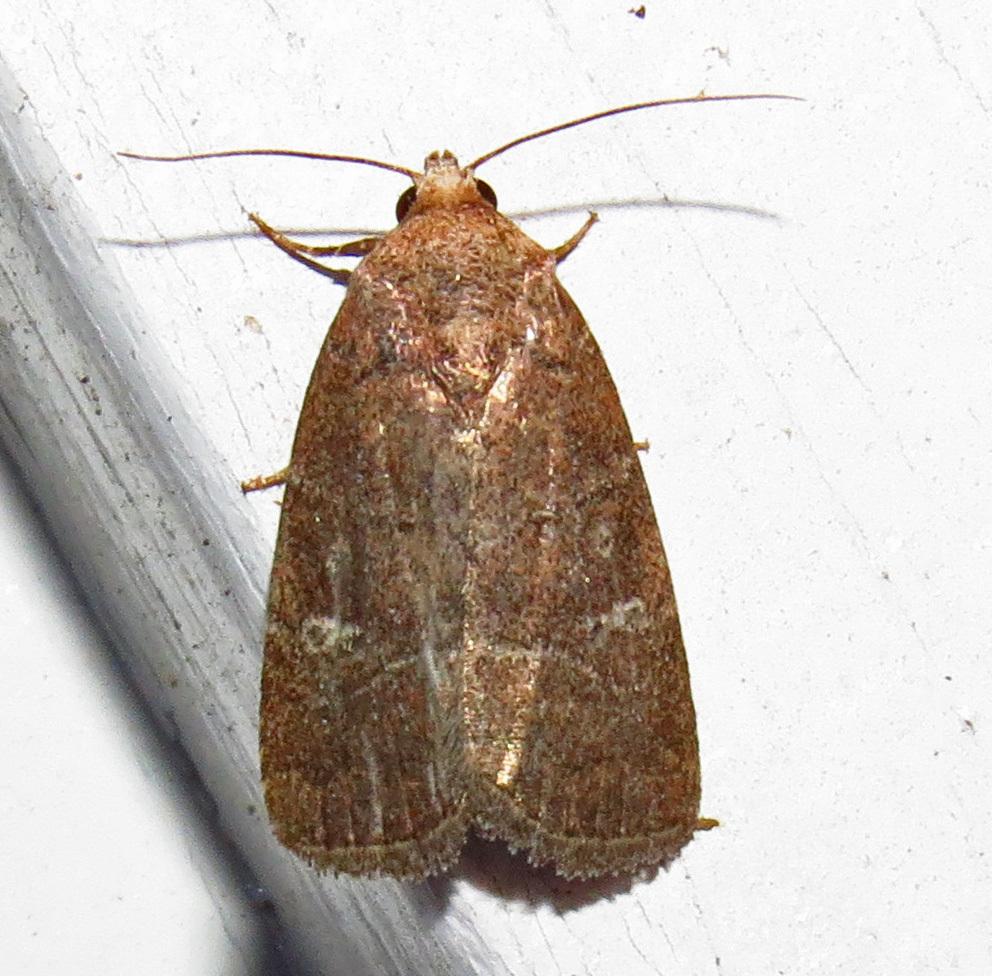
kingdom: Animalia
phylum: Arthropoda
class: Insecta
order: Lepidoptera
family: Noctuidae
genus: Elaphria
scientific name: Elaphria grata
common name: Grateful midget moth
